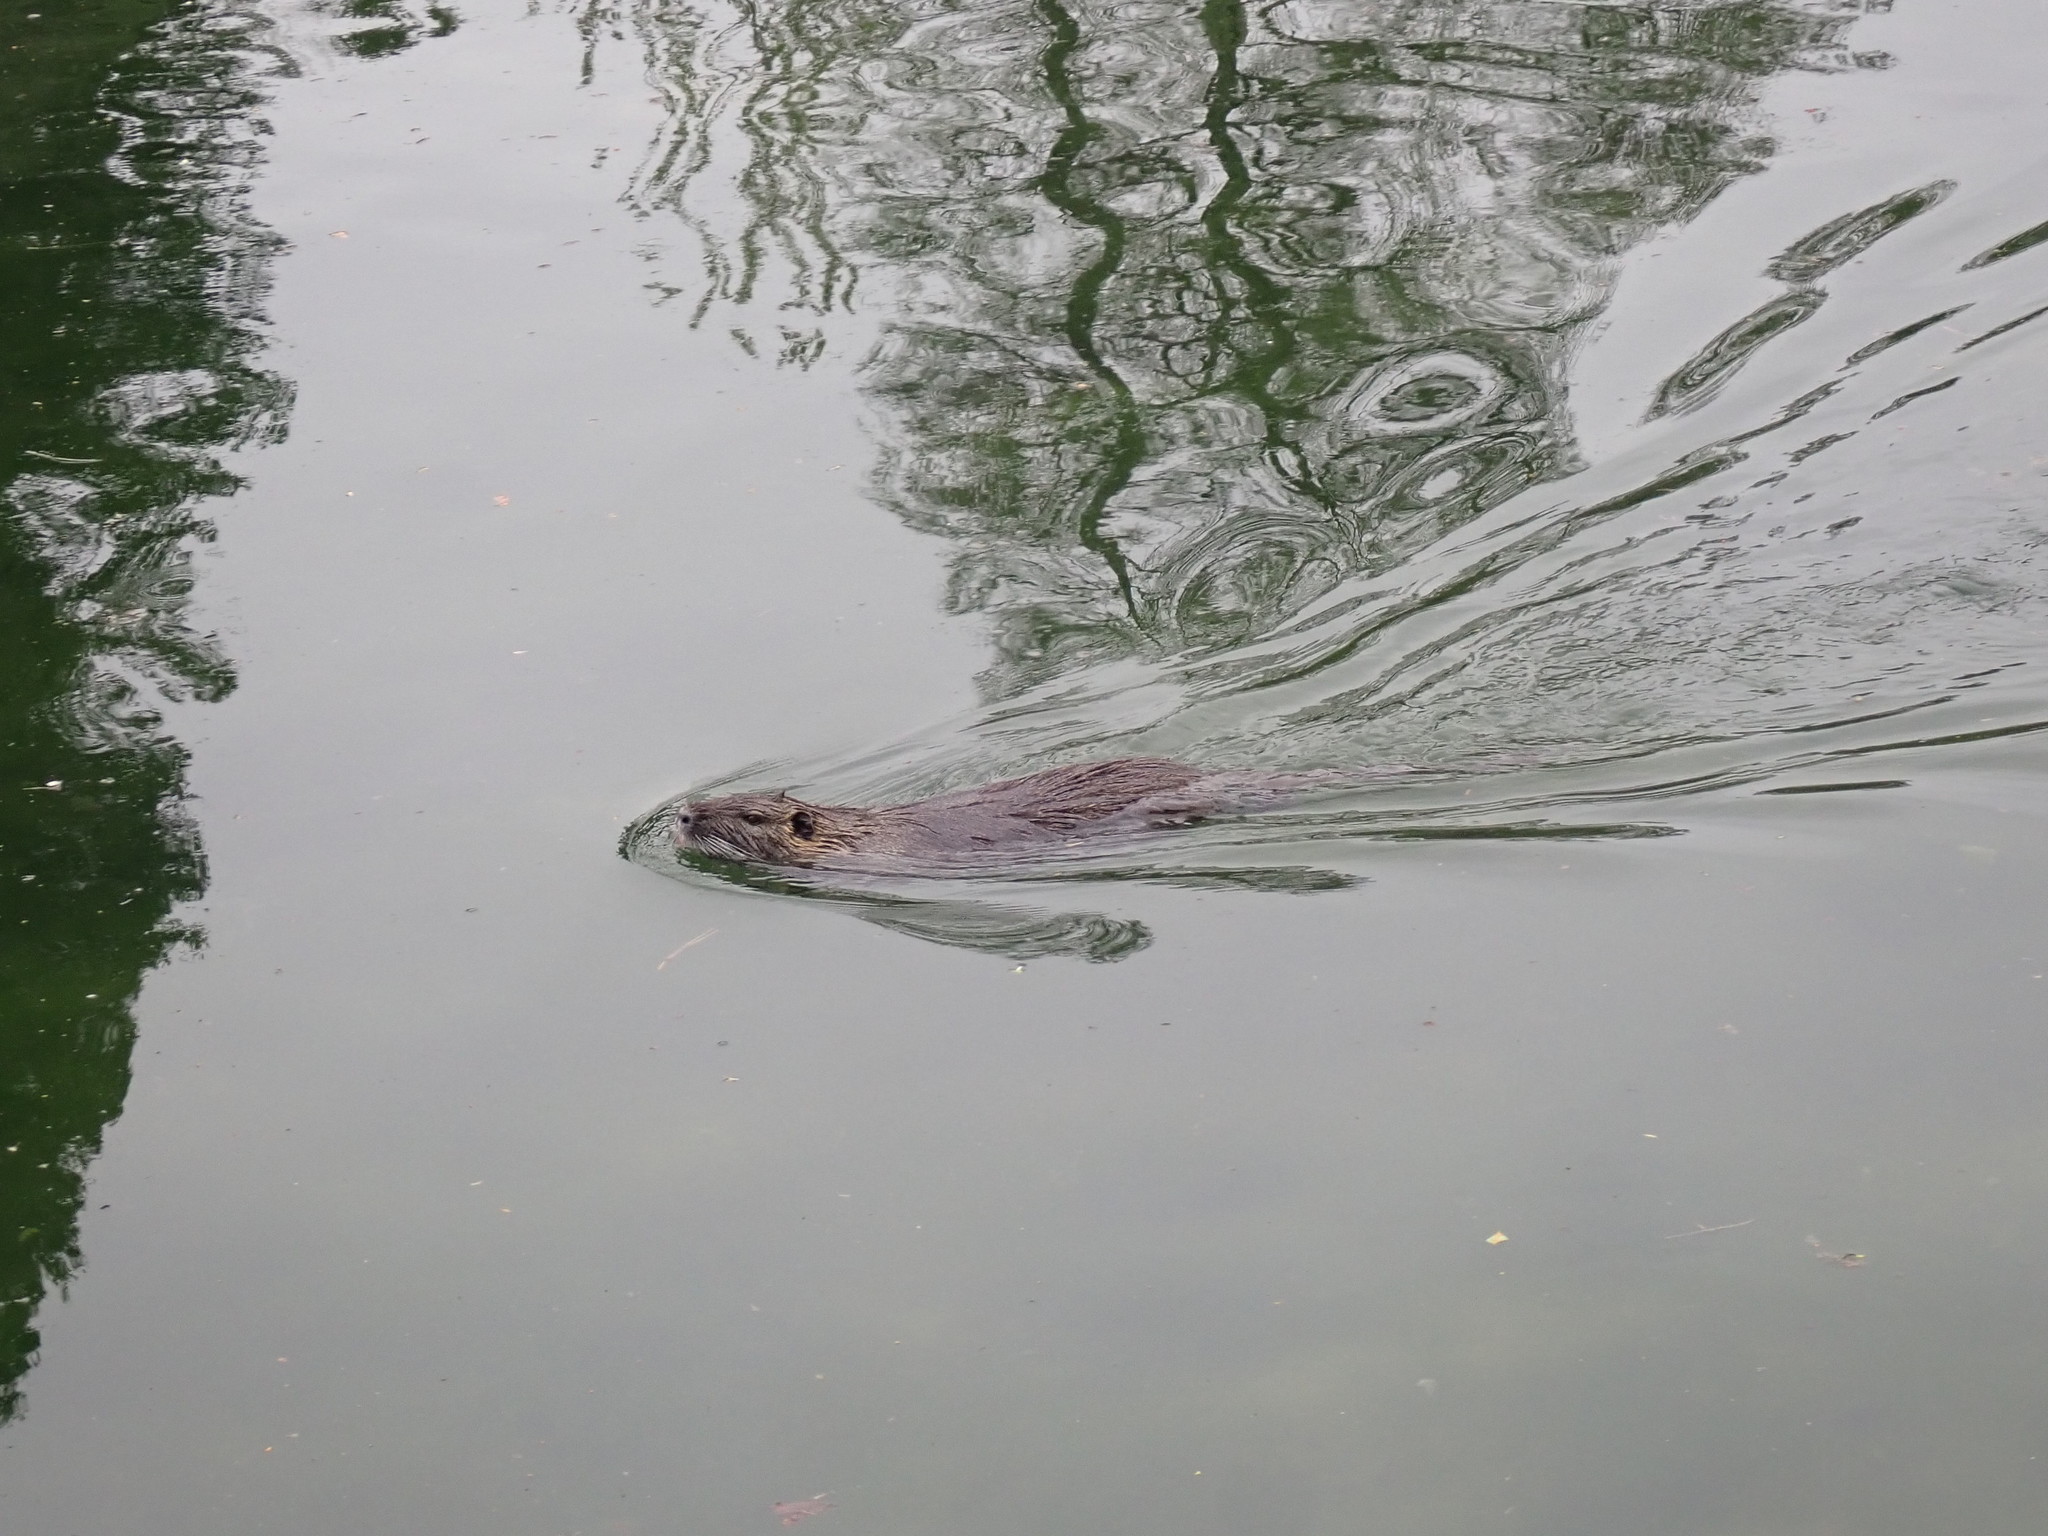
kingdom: Animalia
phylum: Chordata
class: Mammalia
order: Rodentia
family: Myocastoridae
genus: Myocastor
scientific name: Myocastor coypus
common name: Coypu
